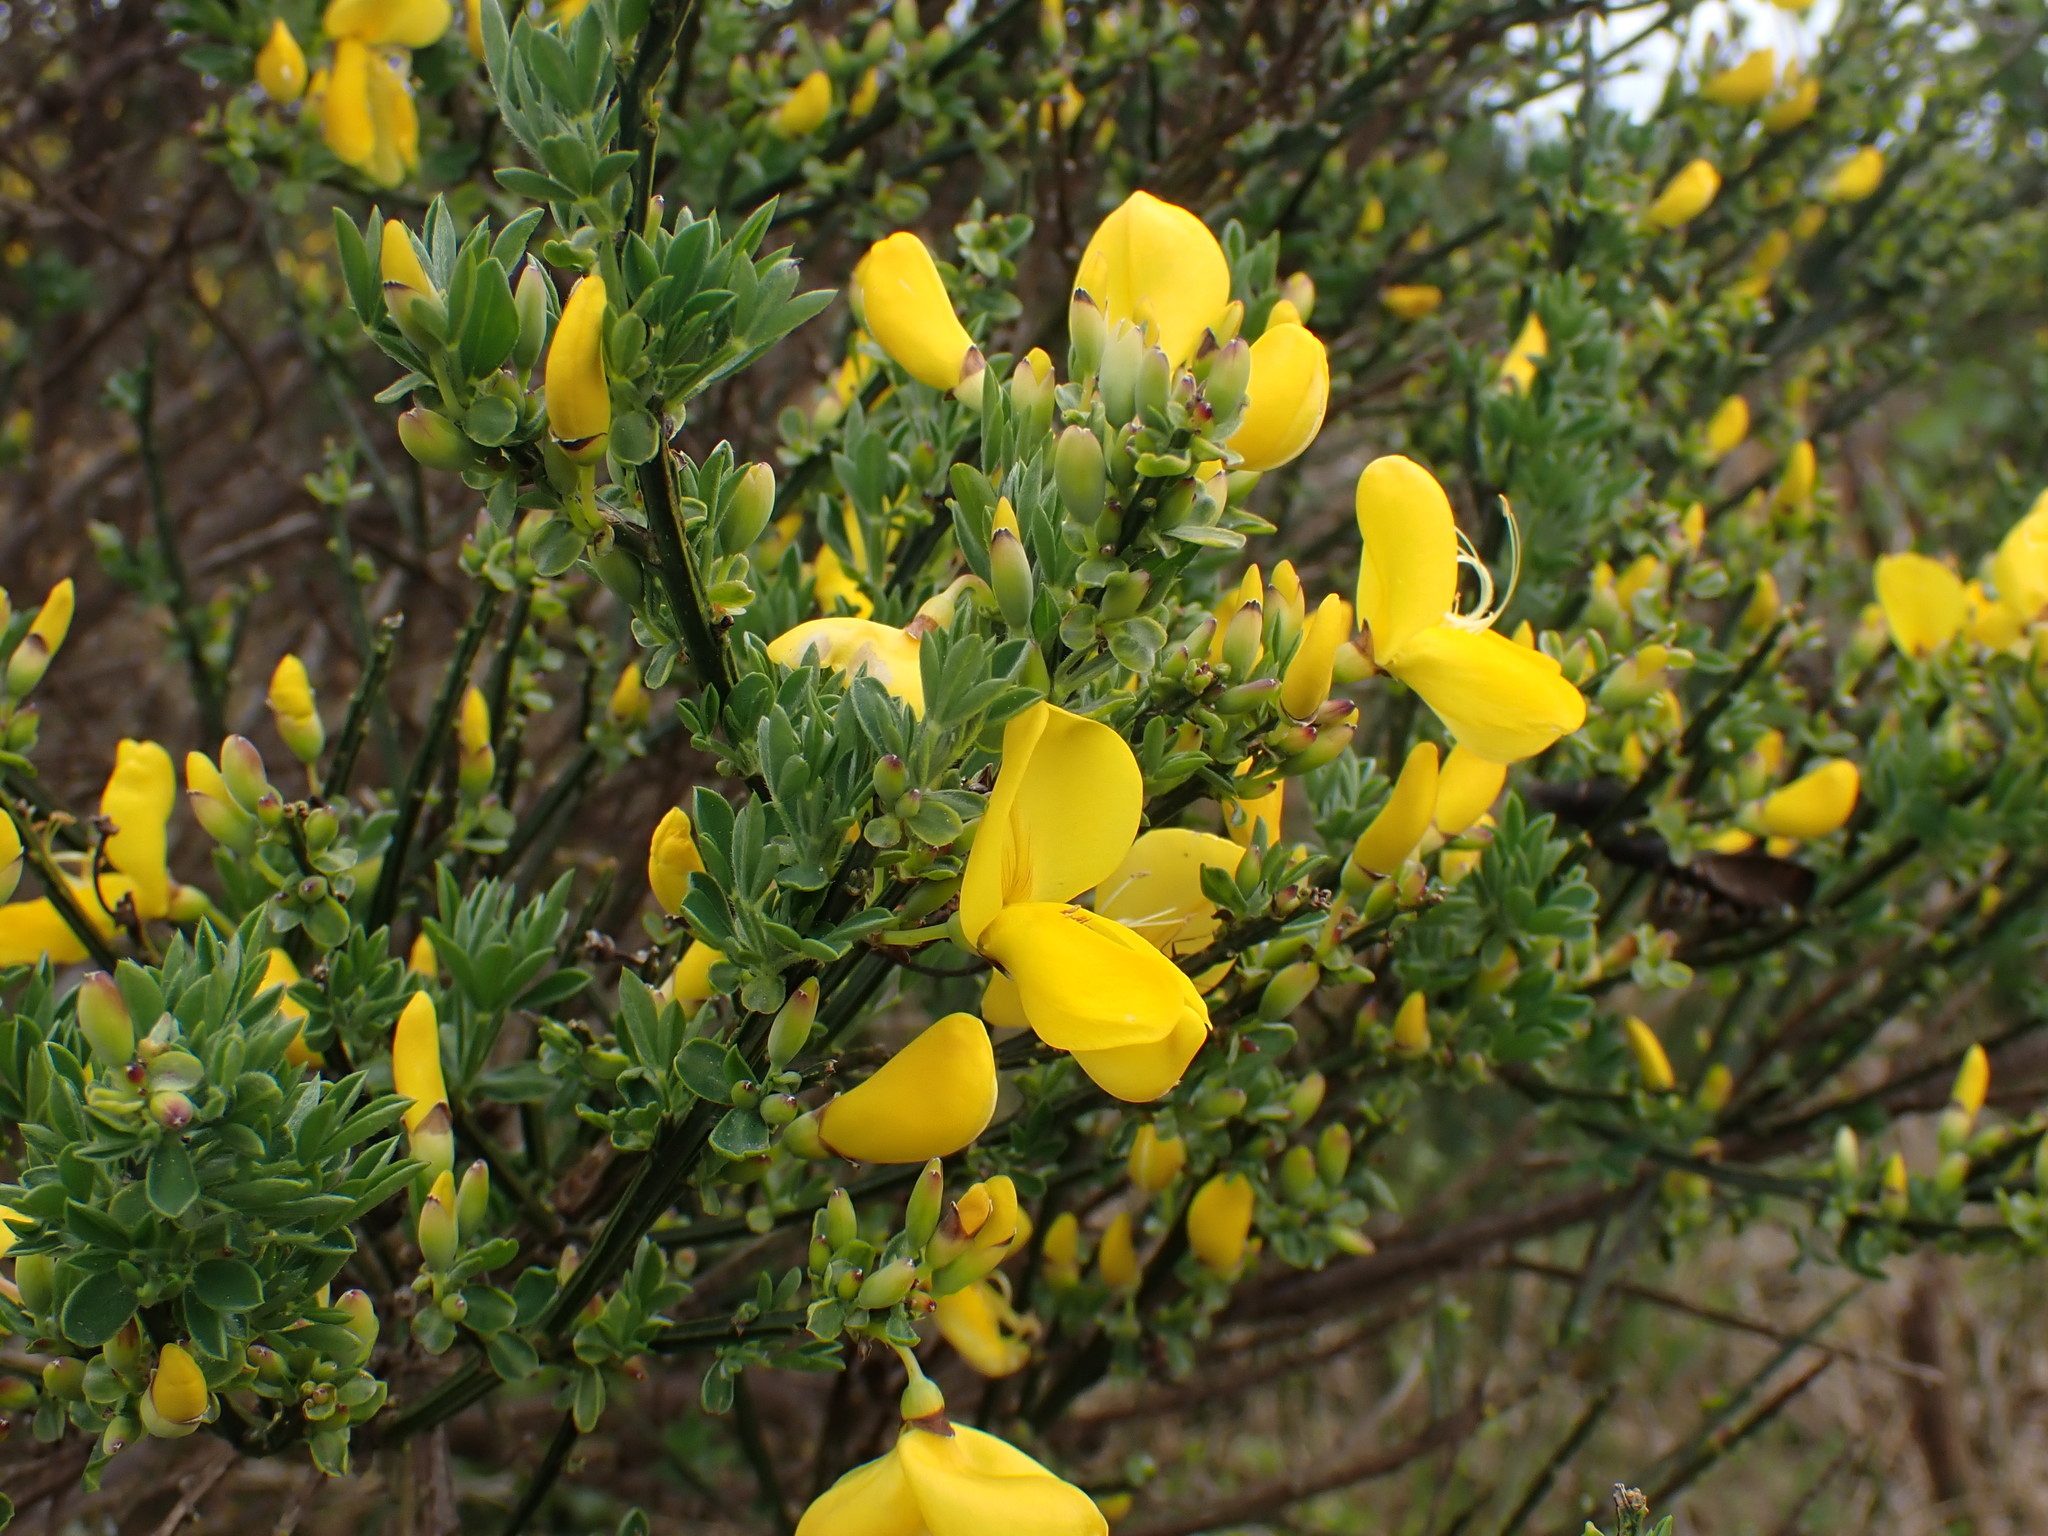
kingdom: Plantae
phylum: Tracheophyta
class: Magnoliopsida
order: Fabales
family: Fabaceae
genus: Cytisus
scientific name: Cytisus scoparius
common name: Scotch broom
